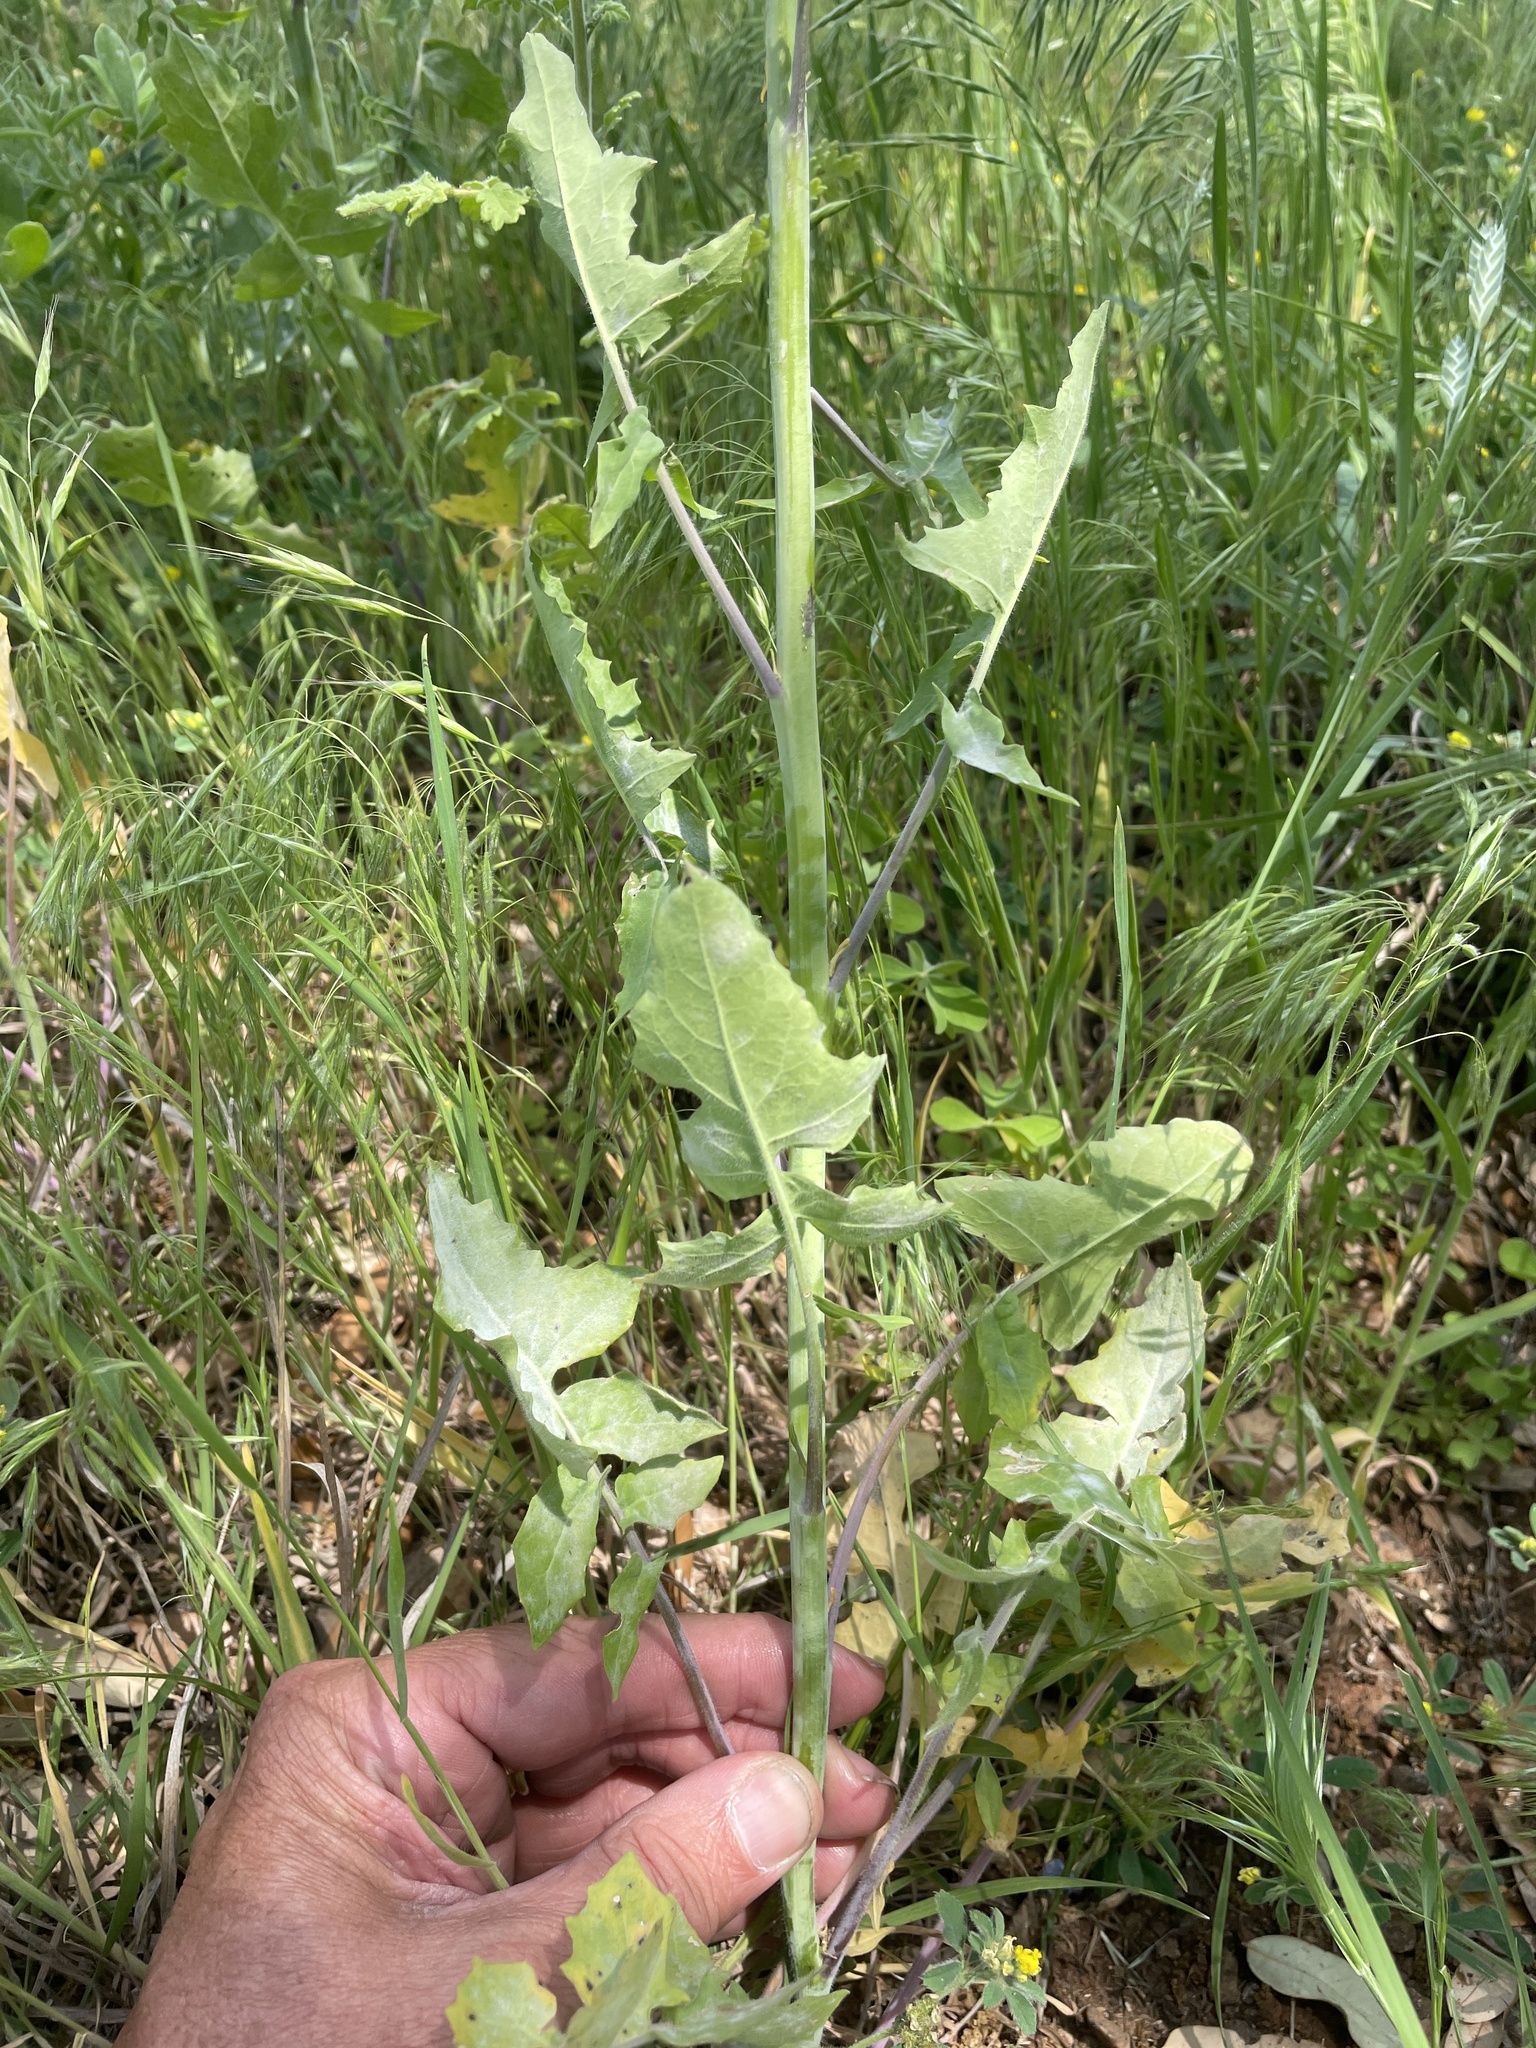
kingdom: Plantae
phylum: Tracheophyta
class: Magnoliopsida
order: Brassicales
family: Brassicaceae
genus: Streptanthus
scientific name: Streptanthus petiolaris
